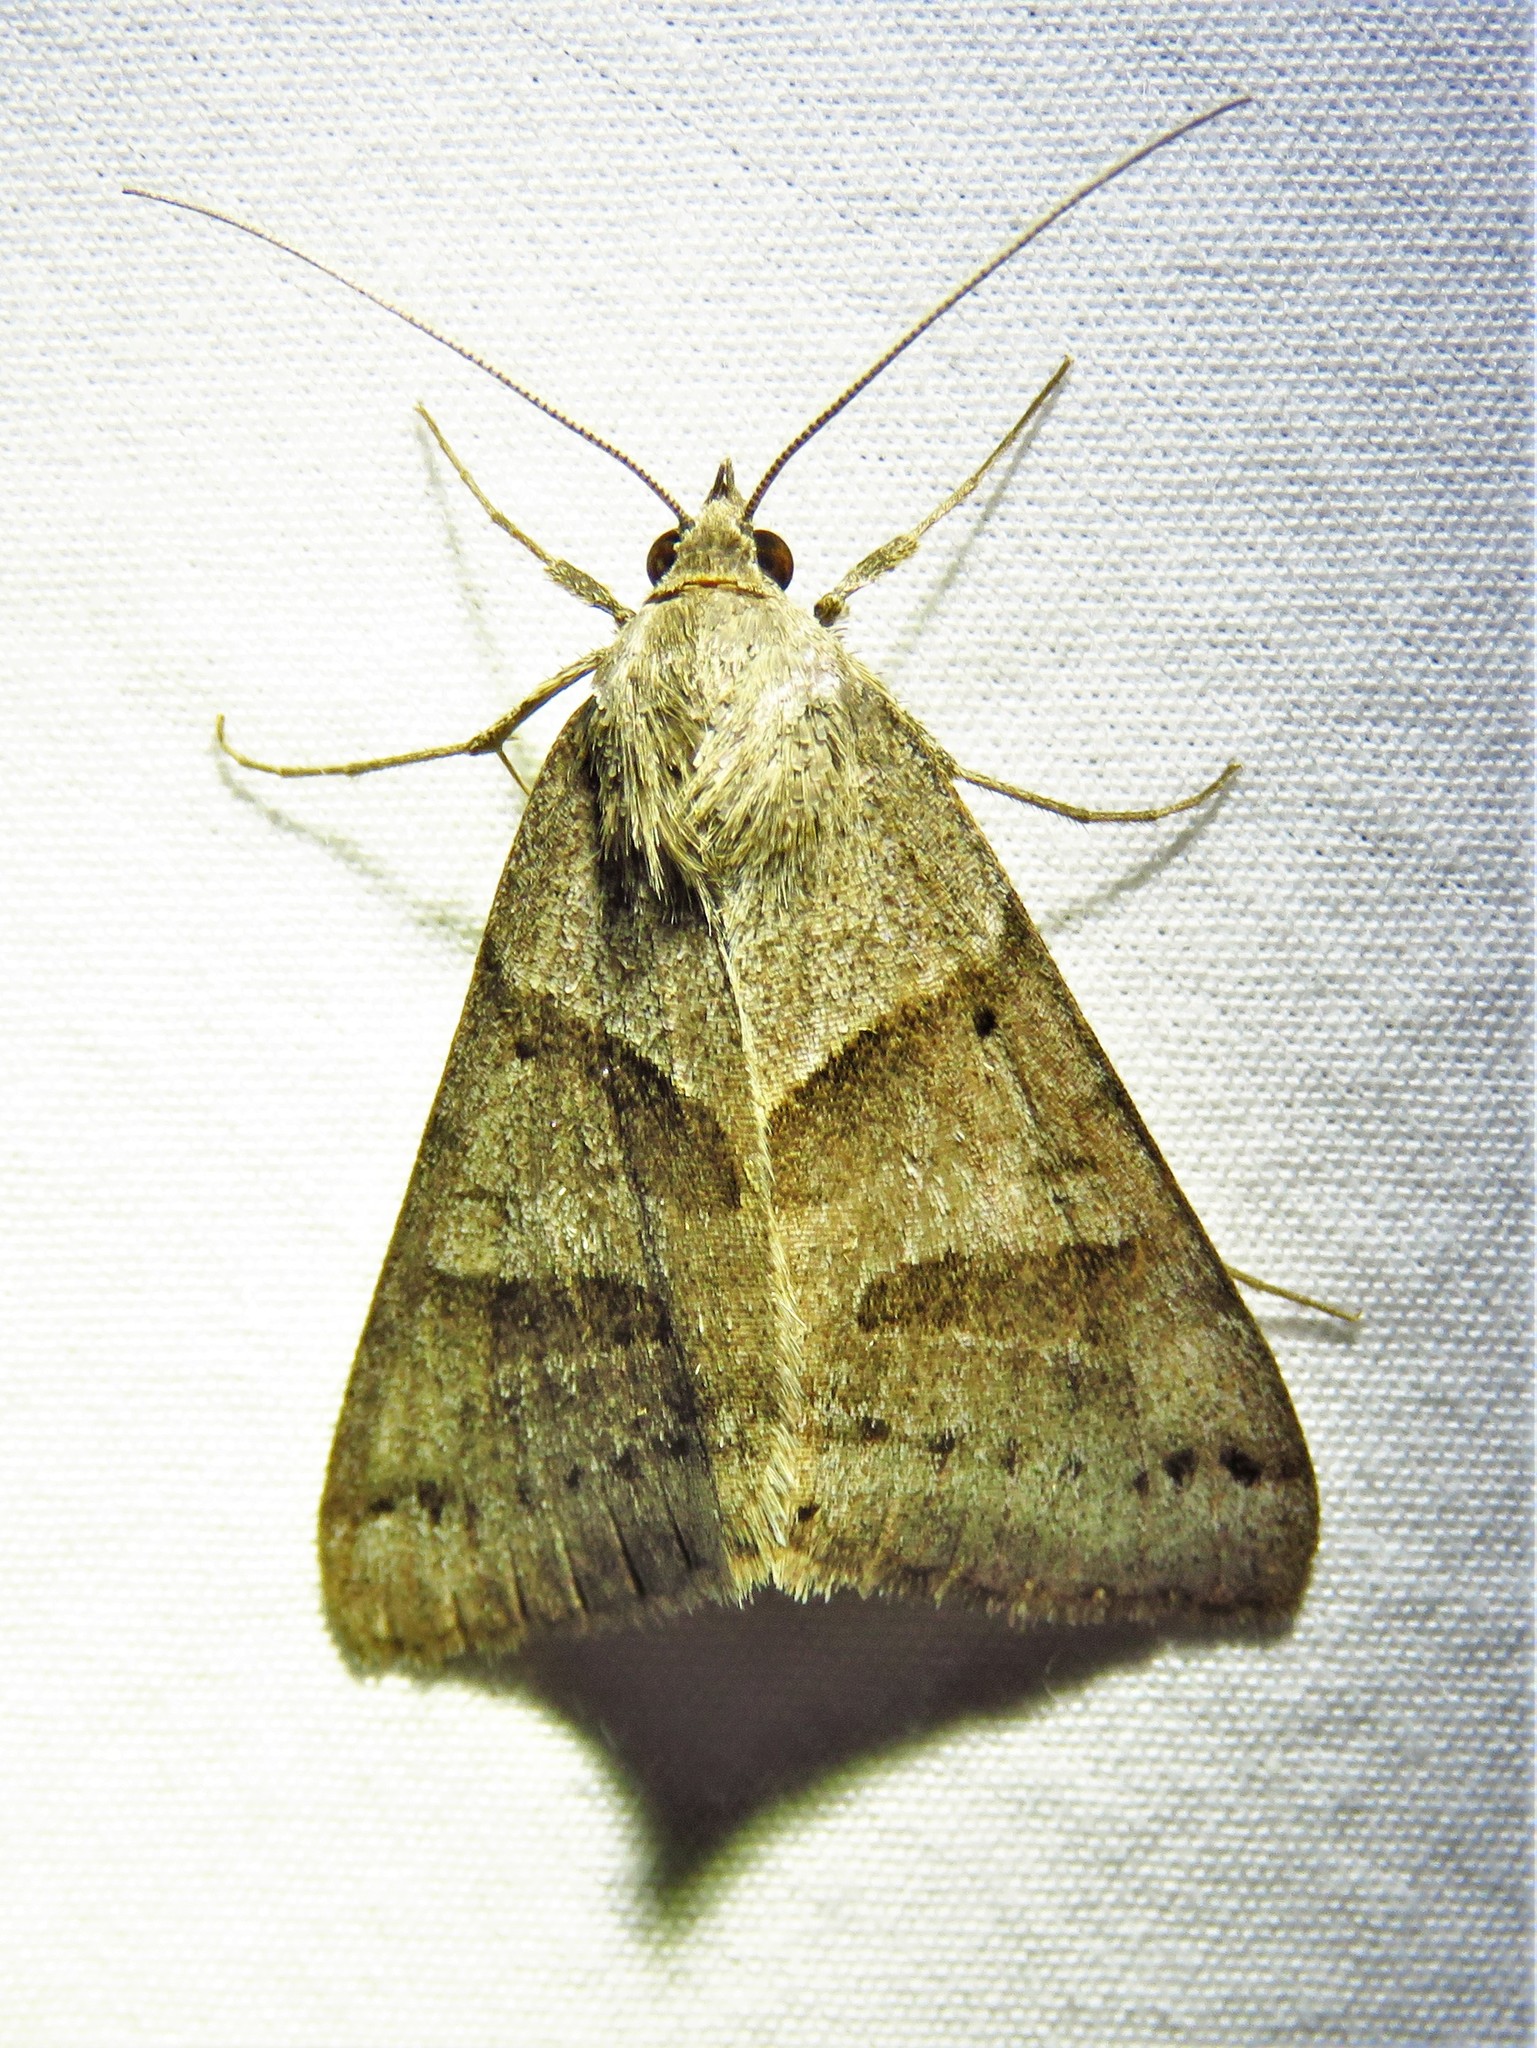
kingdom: Animalia
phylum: Arthropoda
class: Insecta
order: Lepidoptera
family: Erebidae
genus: Caenurgina
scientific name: Caenurgina erechtea
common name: Forage looper moth
